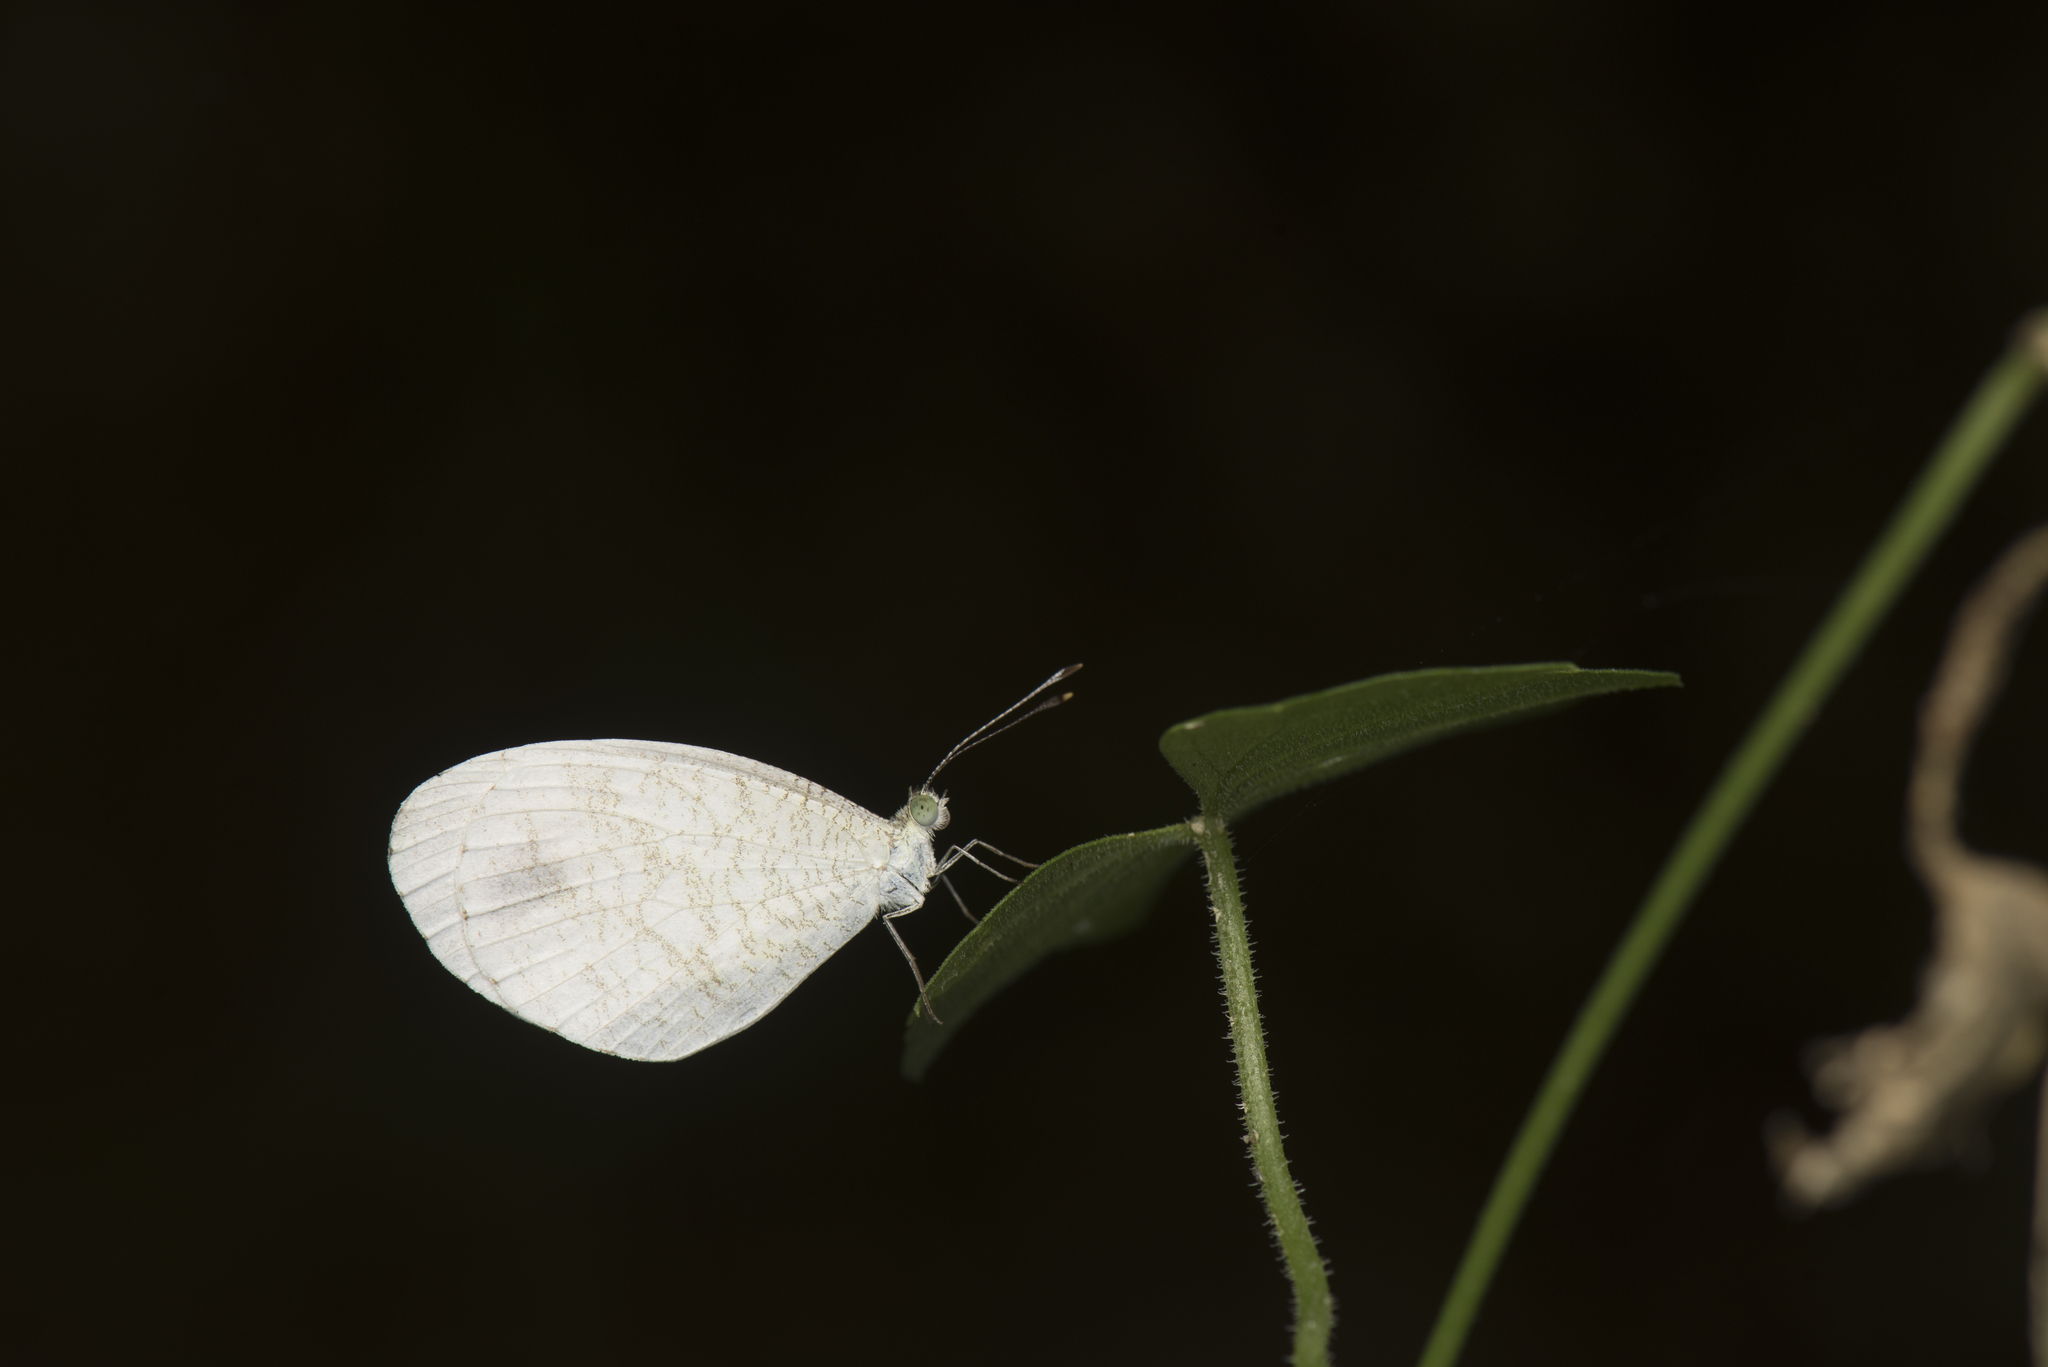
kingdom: Animalia
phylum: Arthropoda
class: Insecta
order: Lepidoptera
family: Pieridae
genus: Leptosia
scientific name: Leptosia nina
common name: Psyche
